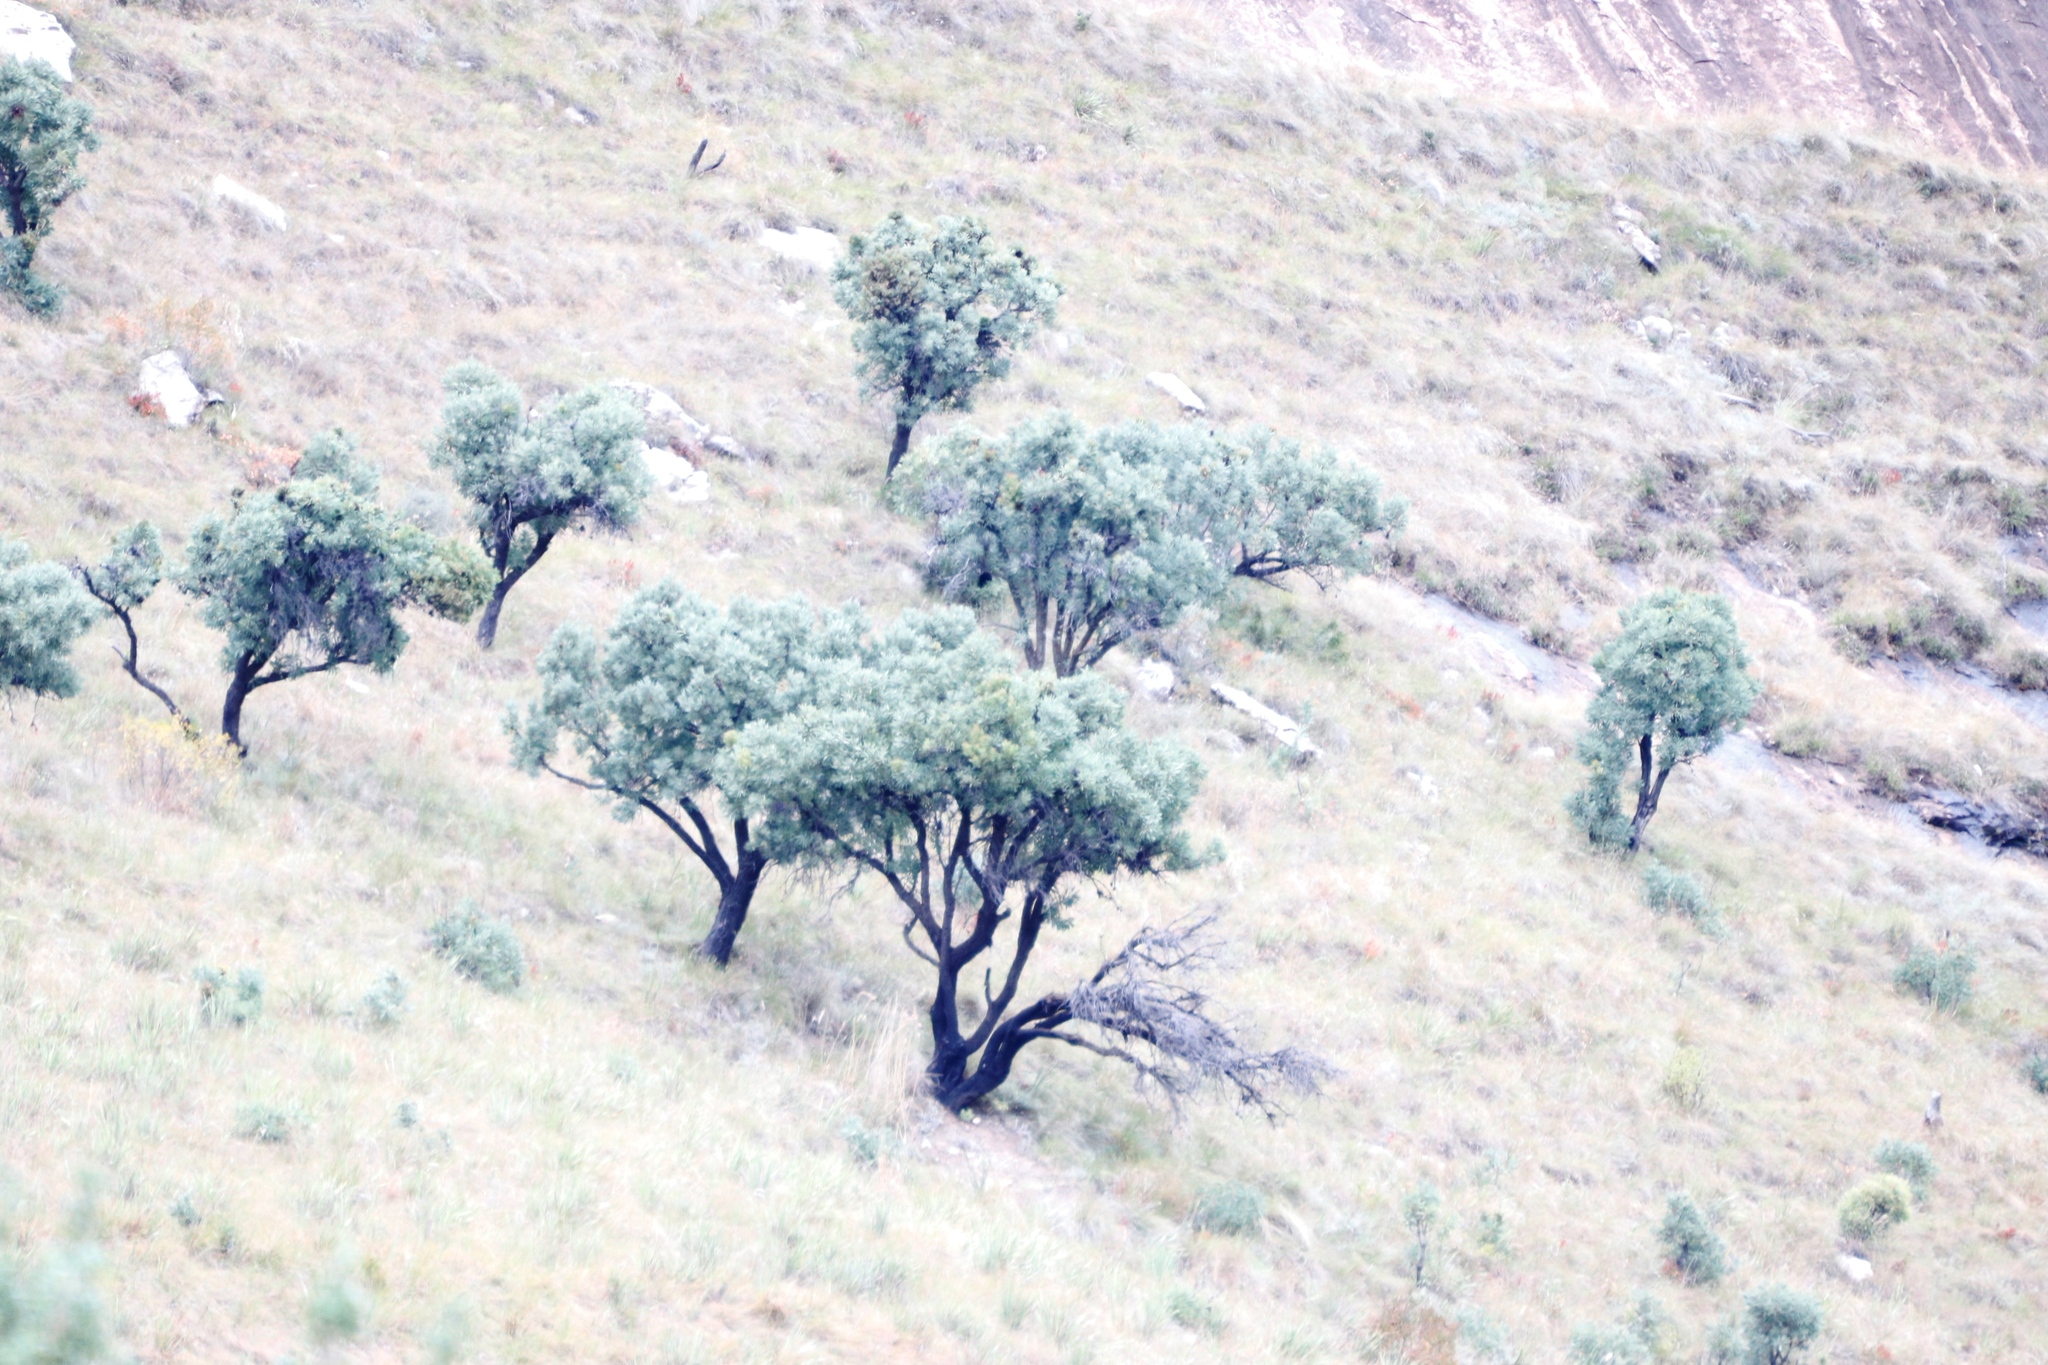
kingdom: Plantae
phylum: Tracheophyta
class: Magnoliopsida
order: Proteales
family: Proteaceae
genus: Protea
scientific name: Protea caffra
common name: Common sugarbush
